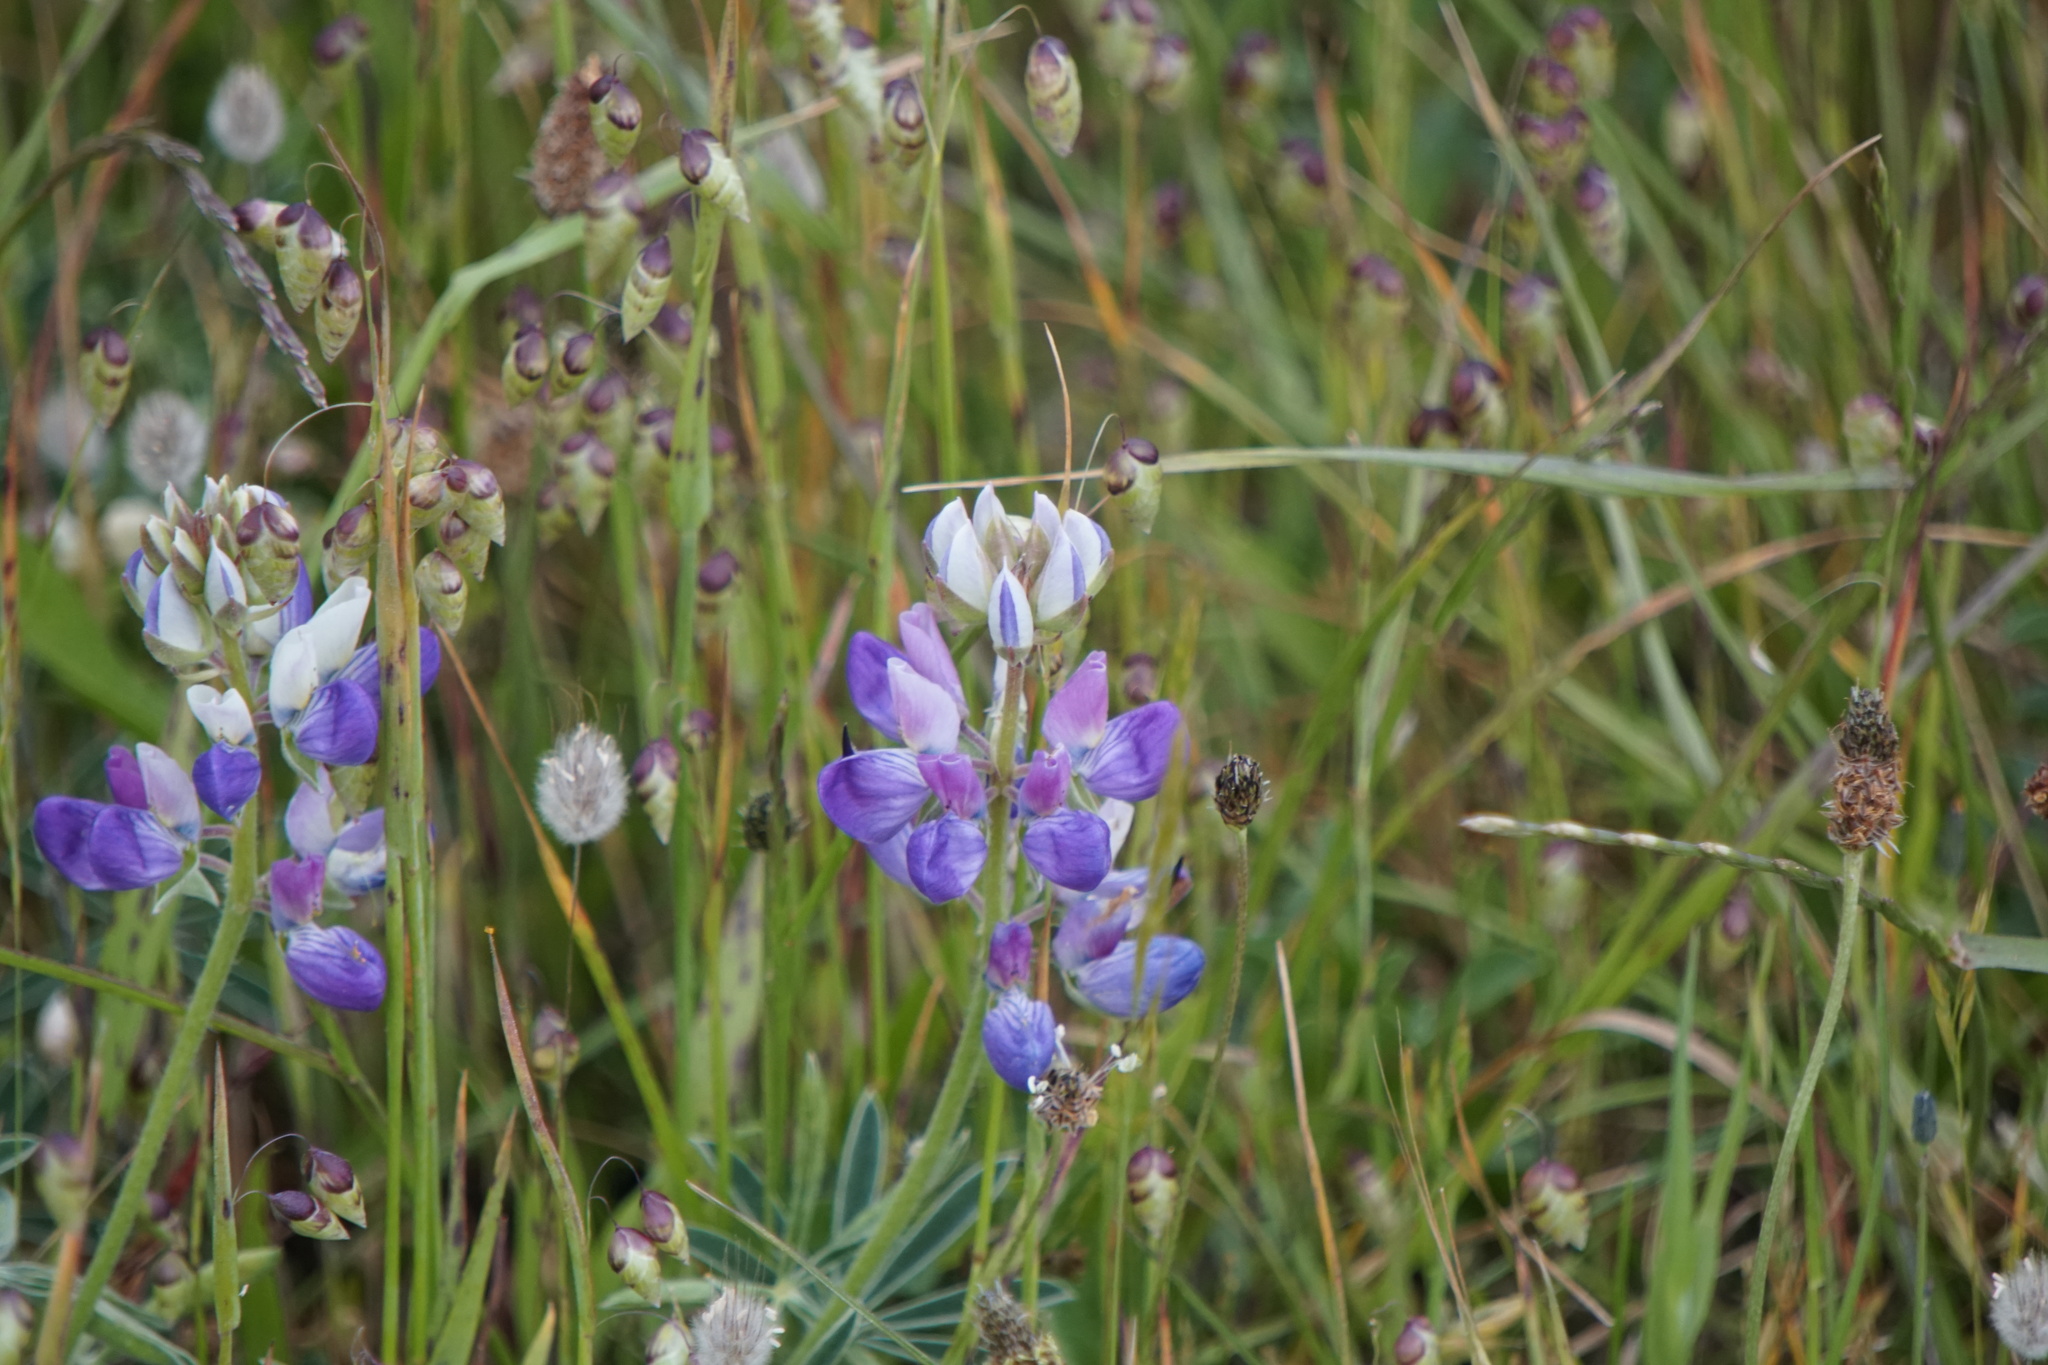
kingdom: Plantae
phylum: Tracheophyta
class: Magnoliopsida
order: Fabales
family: Fabaceae
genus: Lupinus
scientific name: Lupinus variicolor
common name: Lindley's varied lupine
